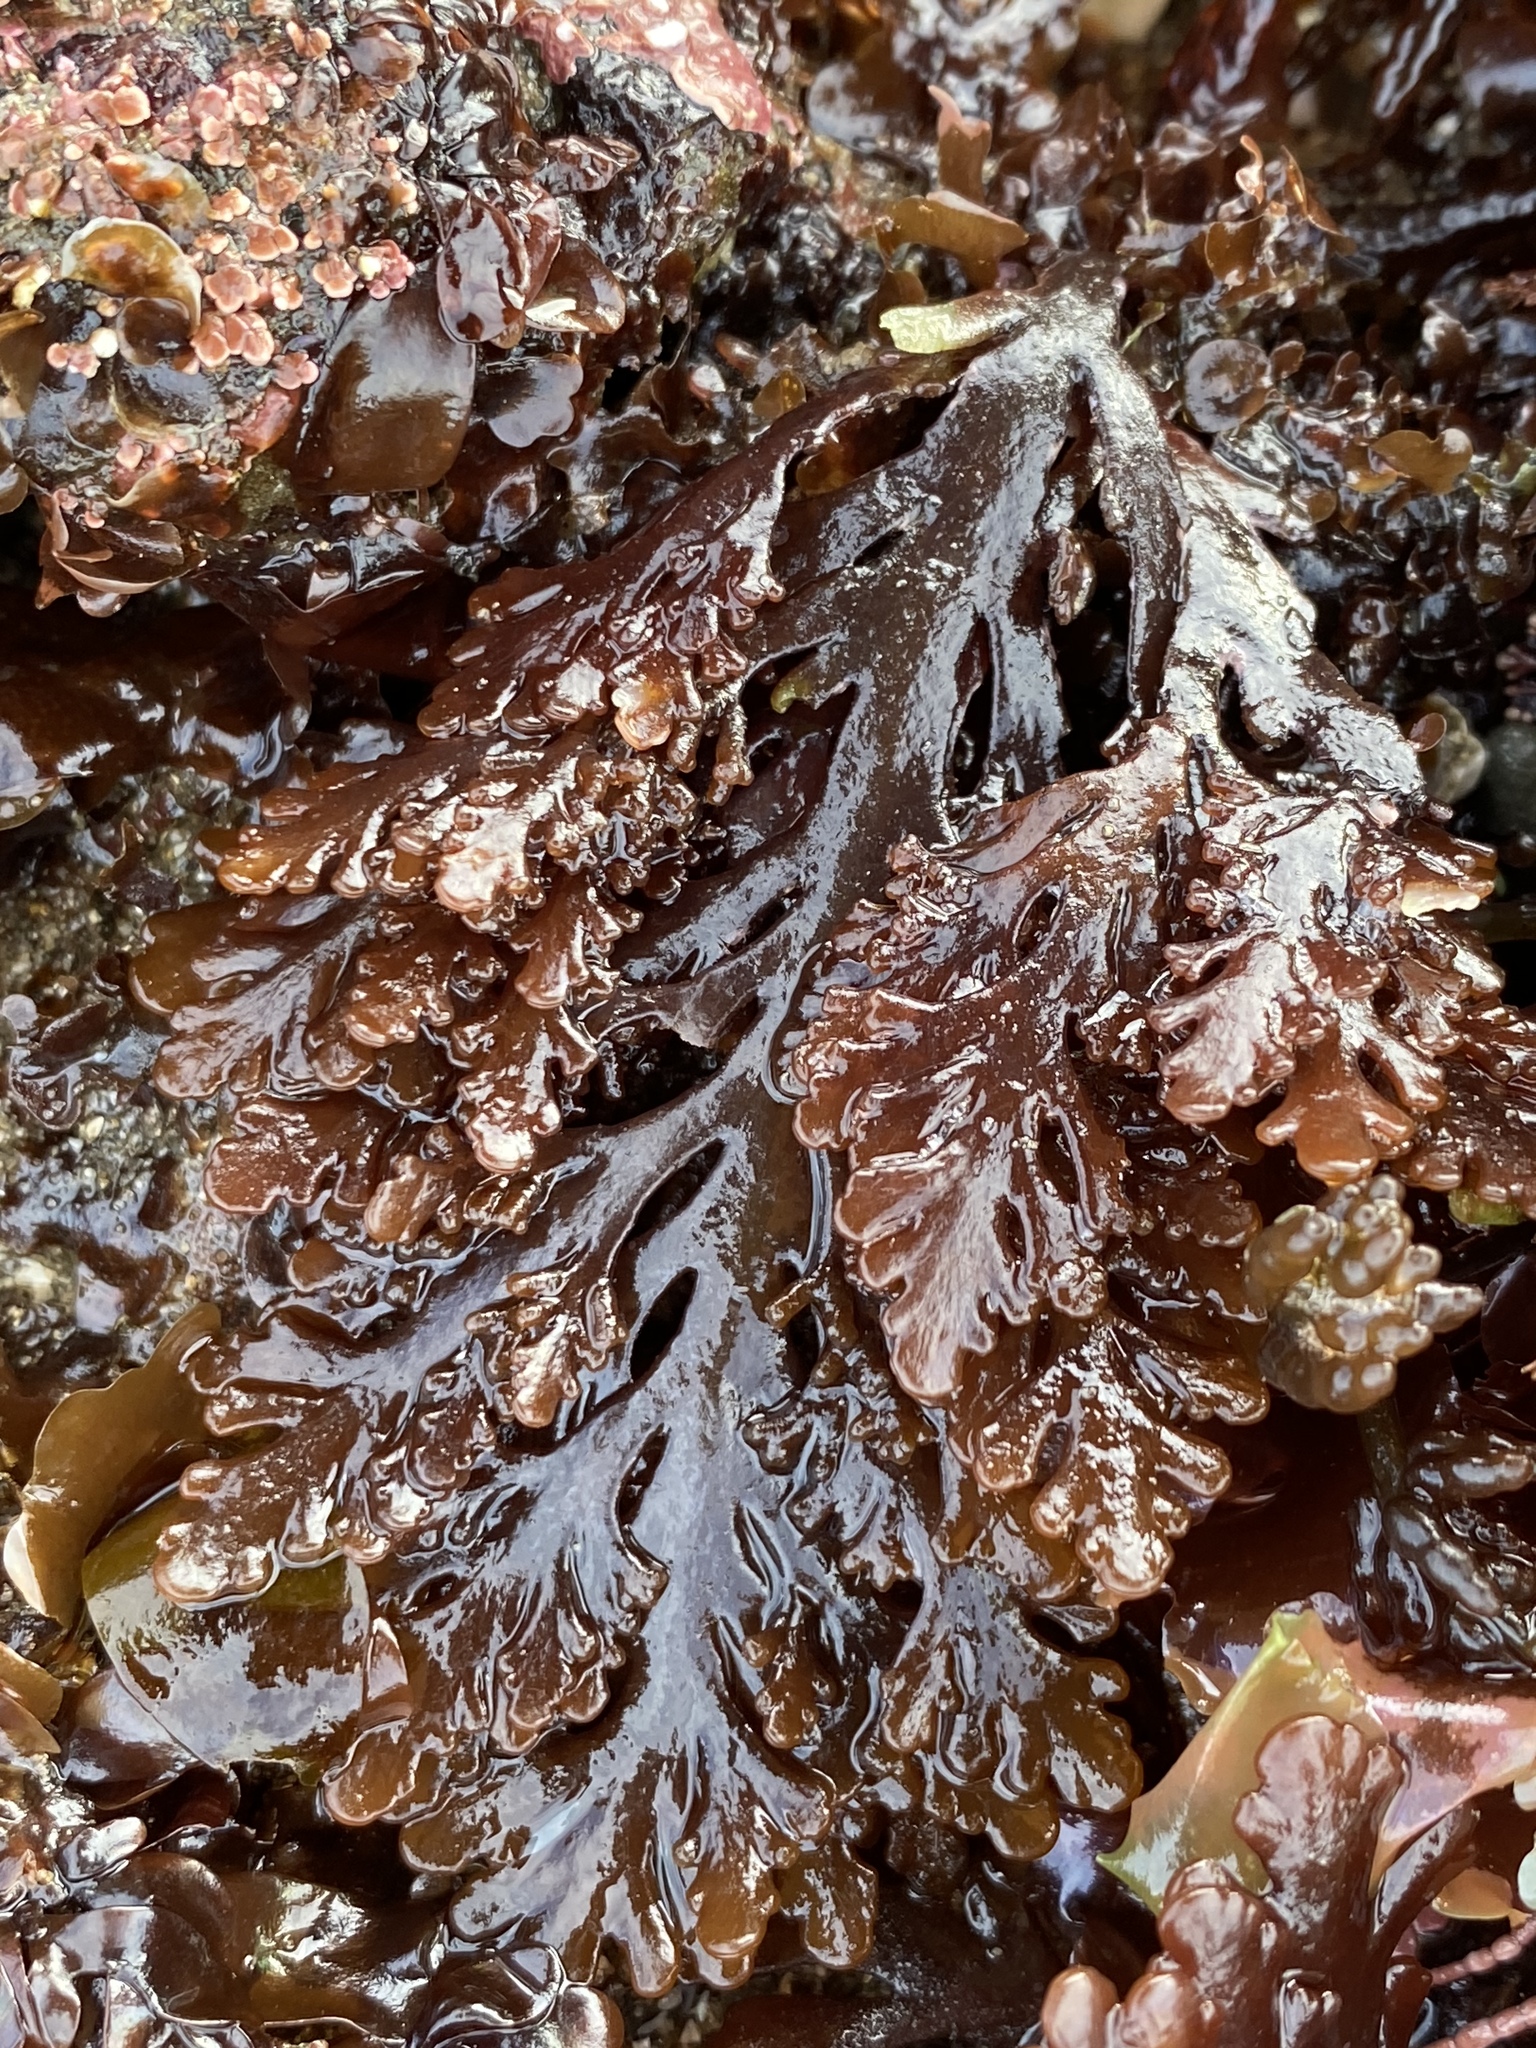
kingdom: Plantae
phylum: Rhodophyta
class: Florideophyceae
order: Ceramiales
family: Rhodomelaceae
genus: Osmundea
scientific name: Osmundea spectabilis
